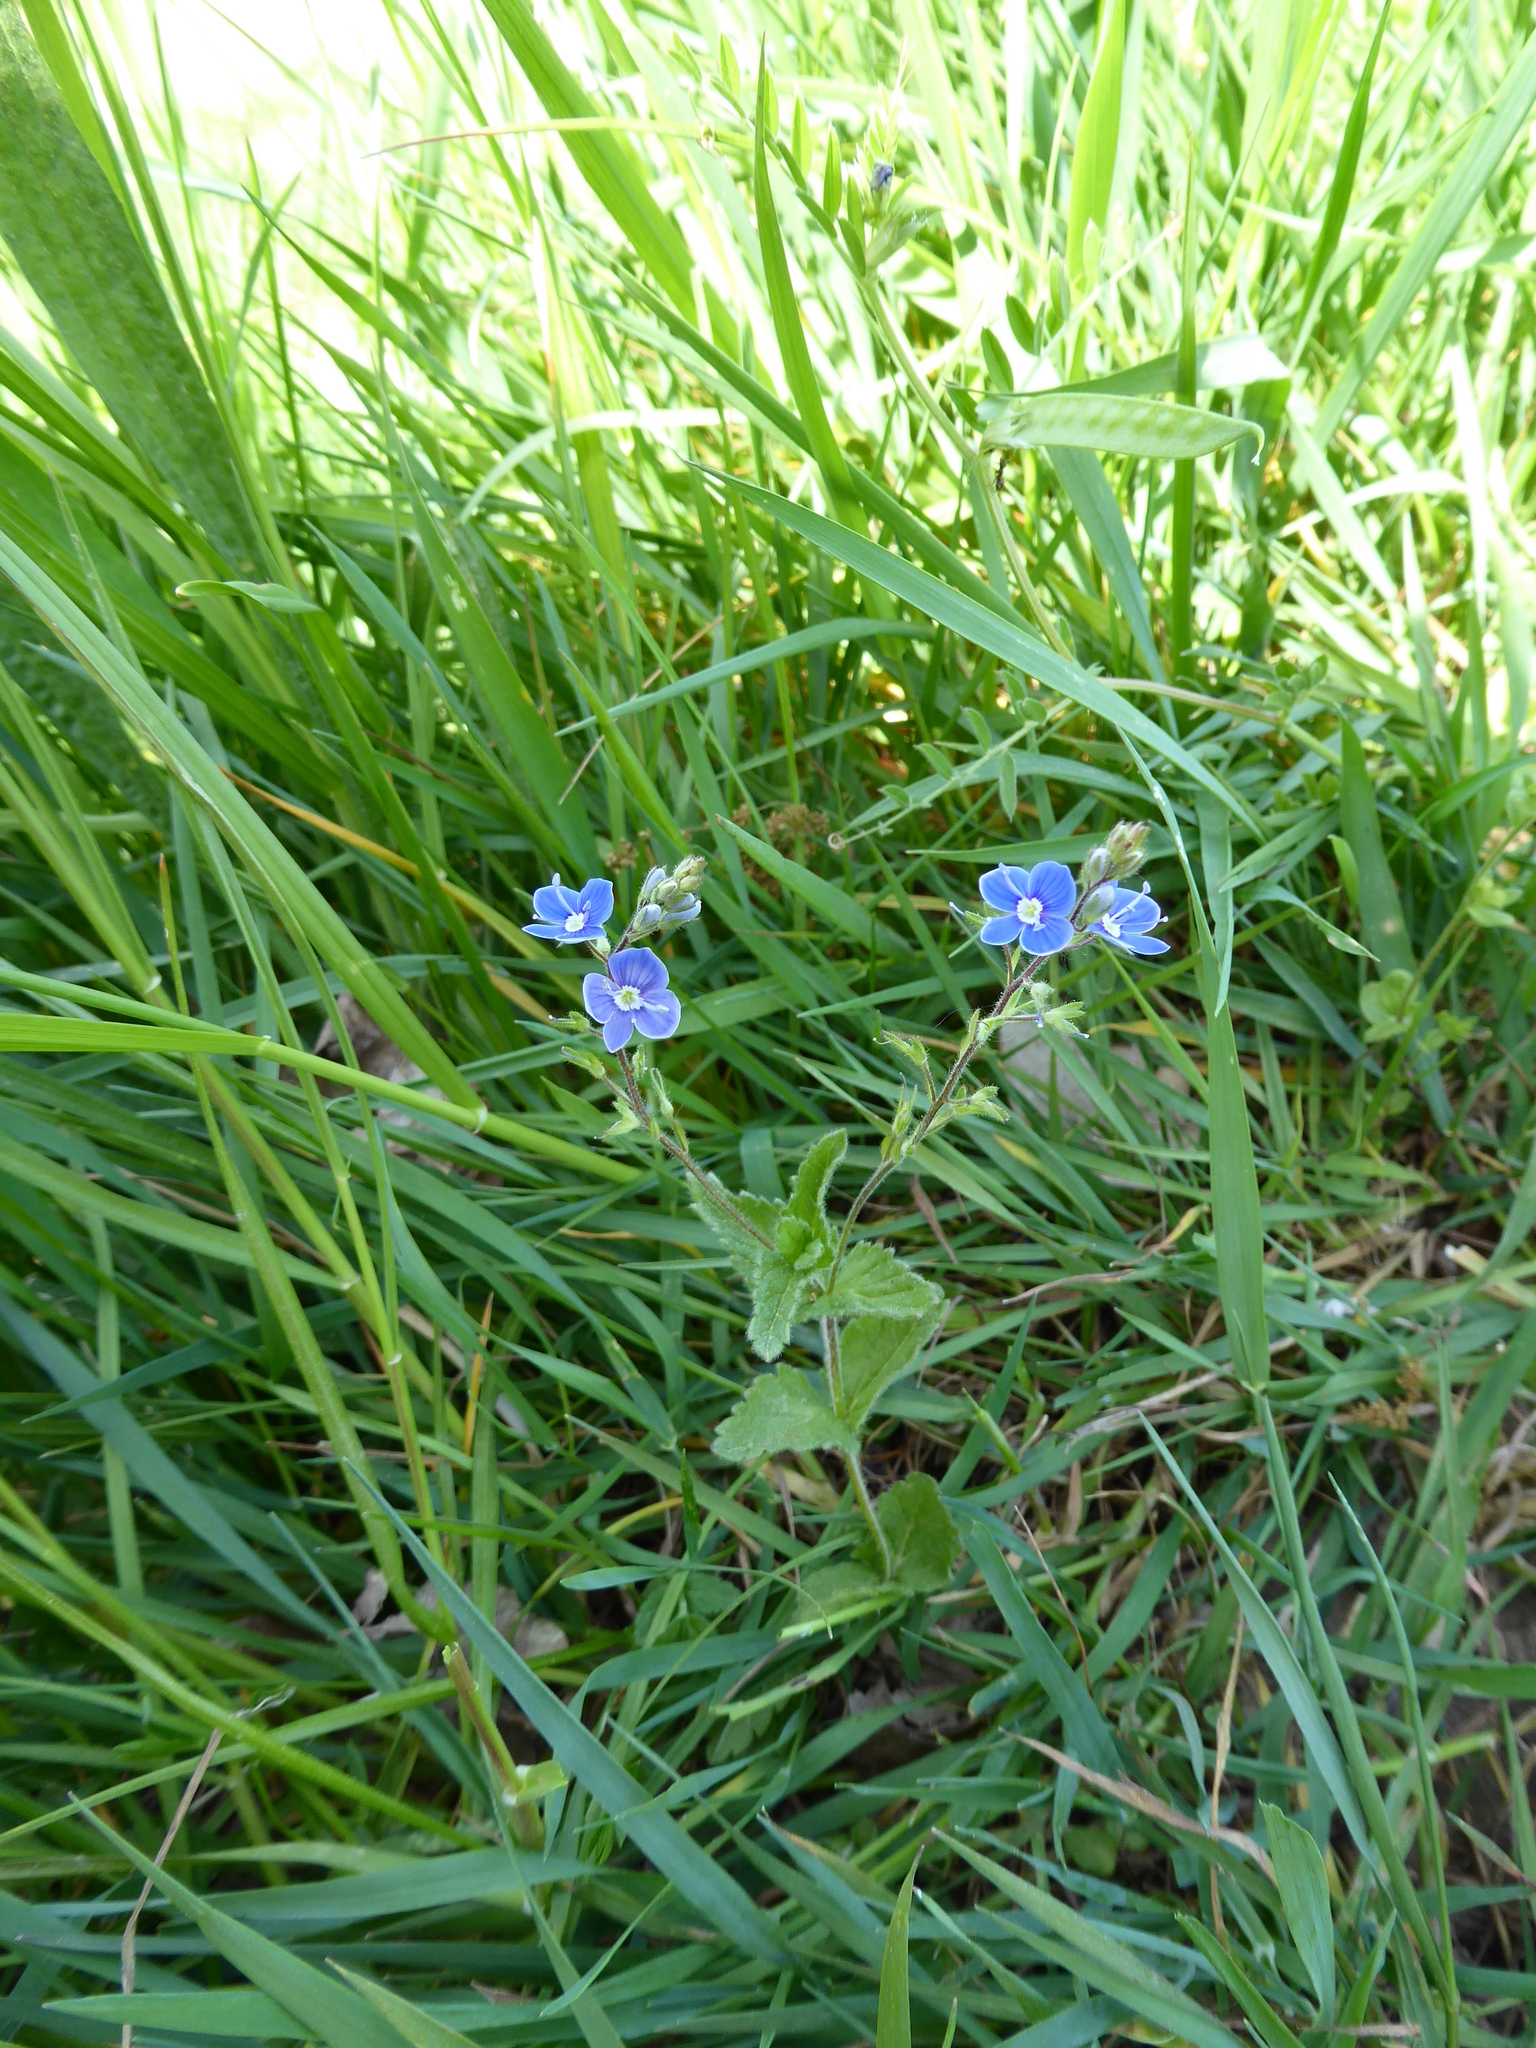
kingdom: Plantae
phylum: Tracheophyta
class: Magnoliopsida
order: Lamiales
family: Plantaginaceae
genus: Veronica
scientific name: Veronica chamaedrys
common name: Germander speedwell
